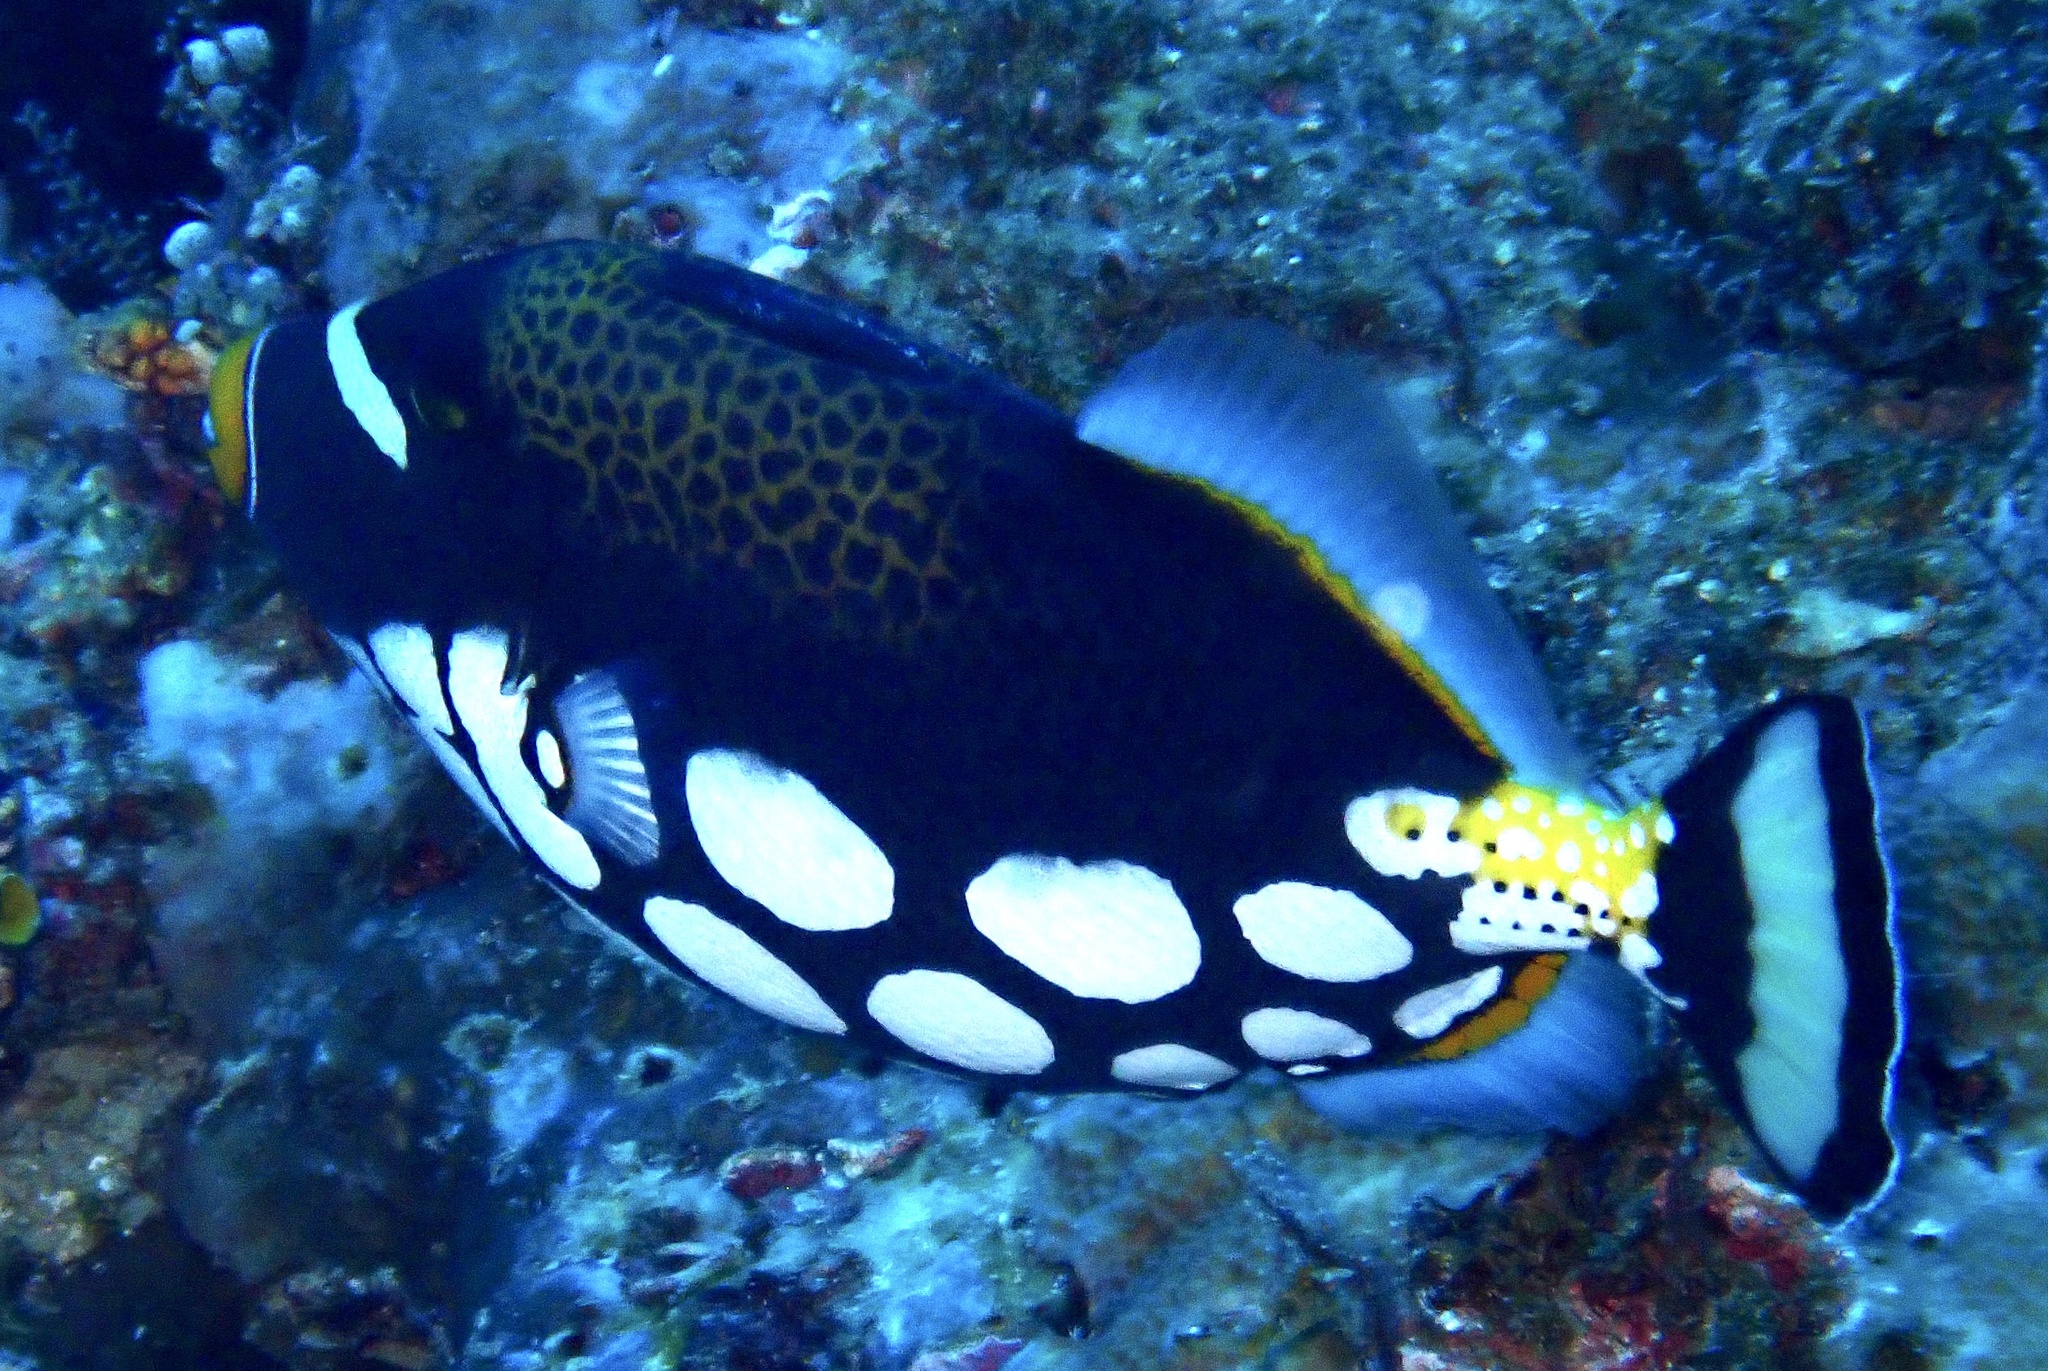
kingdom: Animalia
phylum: Chordata
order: Tetraodontiformes
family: Balistidae
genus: Balistoides
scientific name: Balistoides conspicillum
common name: Clown triggerfish
